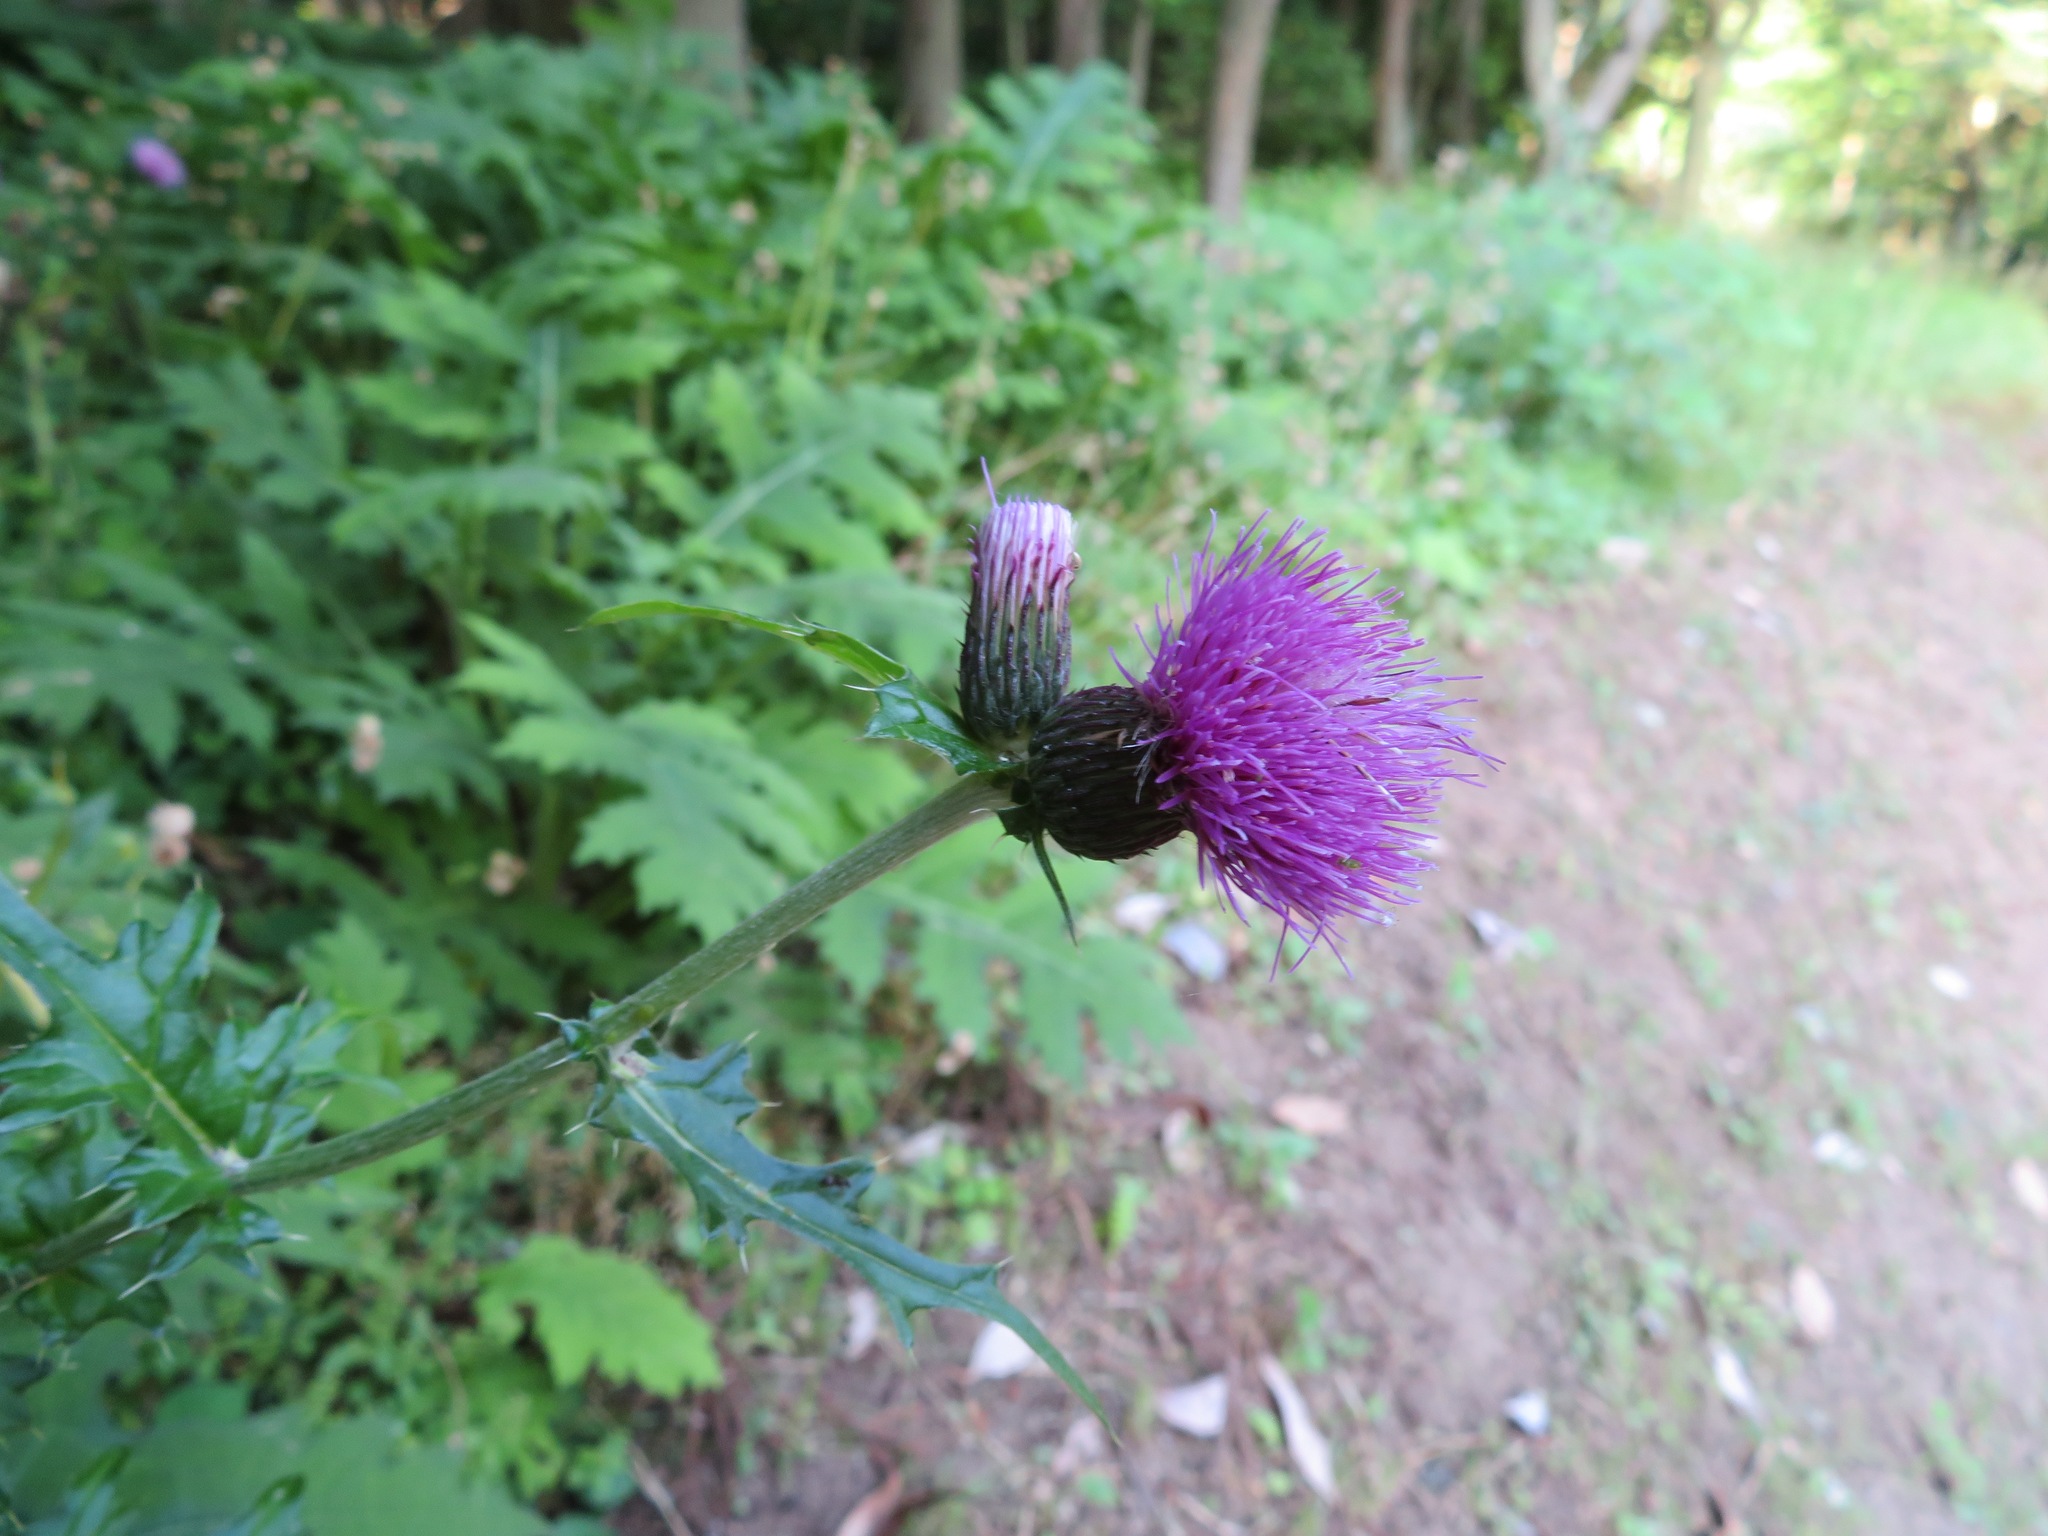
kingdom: Plantae
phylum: Tracheophyta
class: Magnoliopsida
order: Asterales
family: Asteraceae
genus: Cirsium
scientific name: Cirsium japonicum
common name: Japanese thistle
